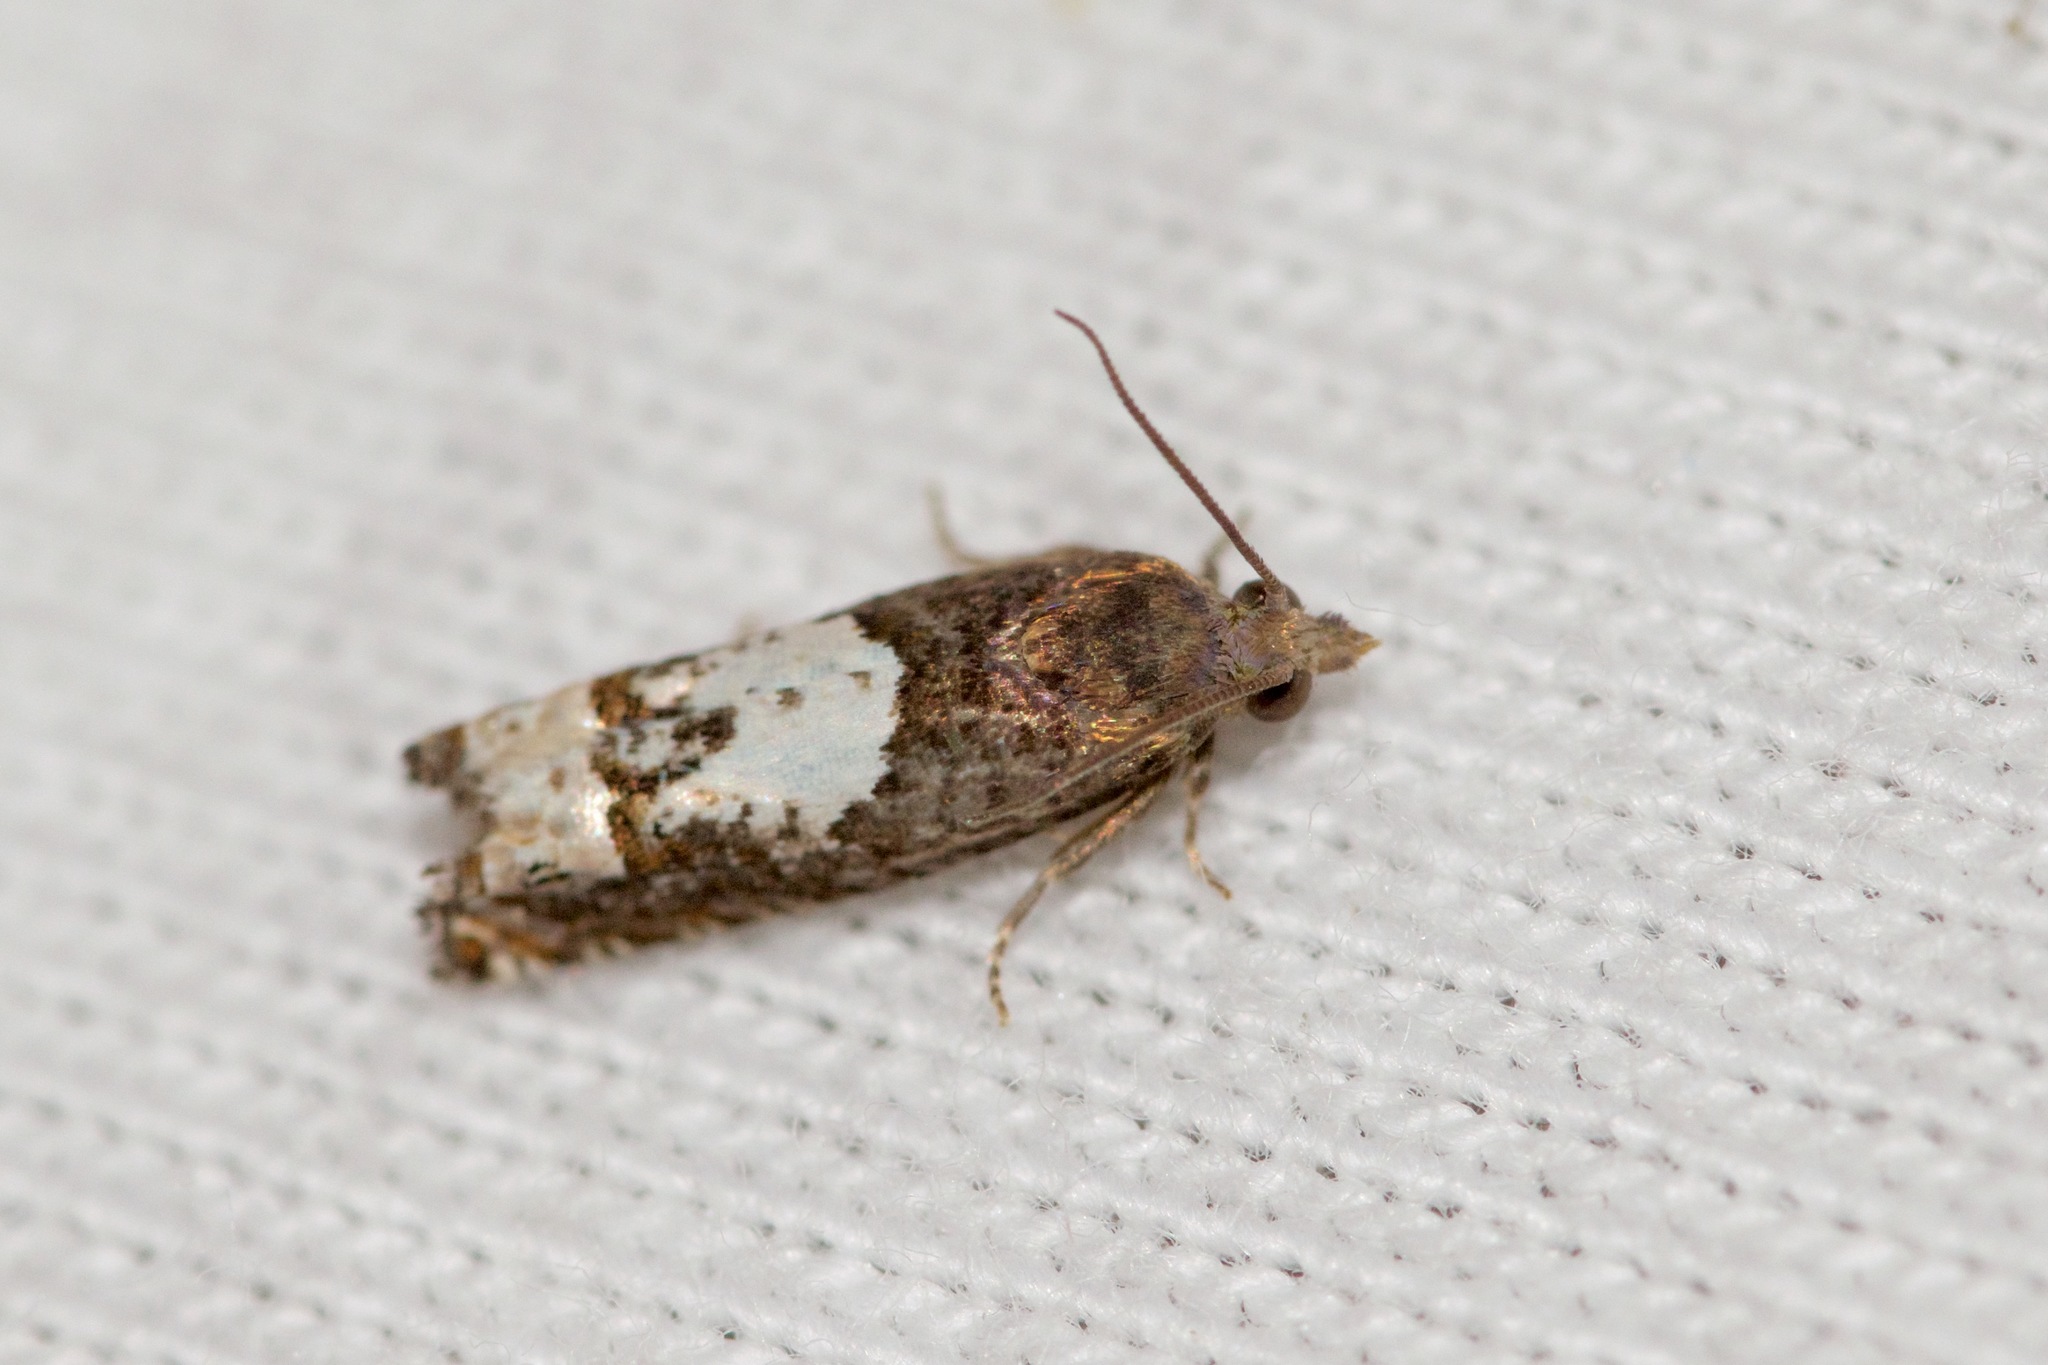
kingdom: Animalia
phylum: Arthropoda
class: Insecta
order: Lepidoptera
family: Tortricidae
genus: Eucosma
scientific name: Eucosma parmatana
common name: Aster eucosma moth
